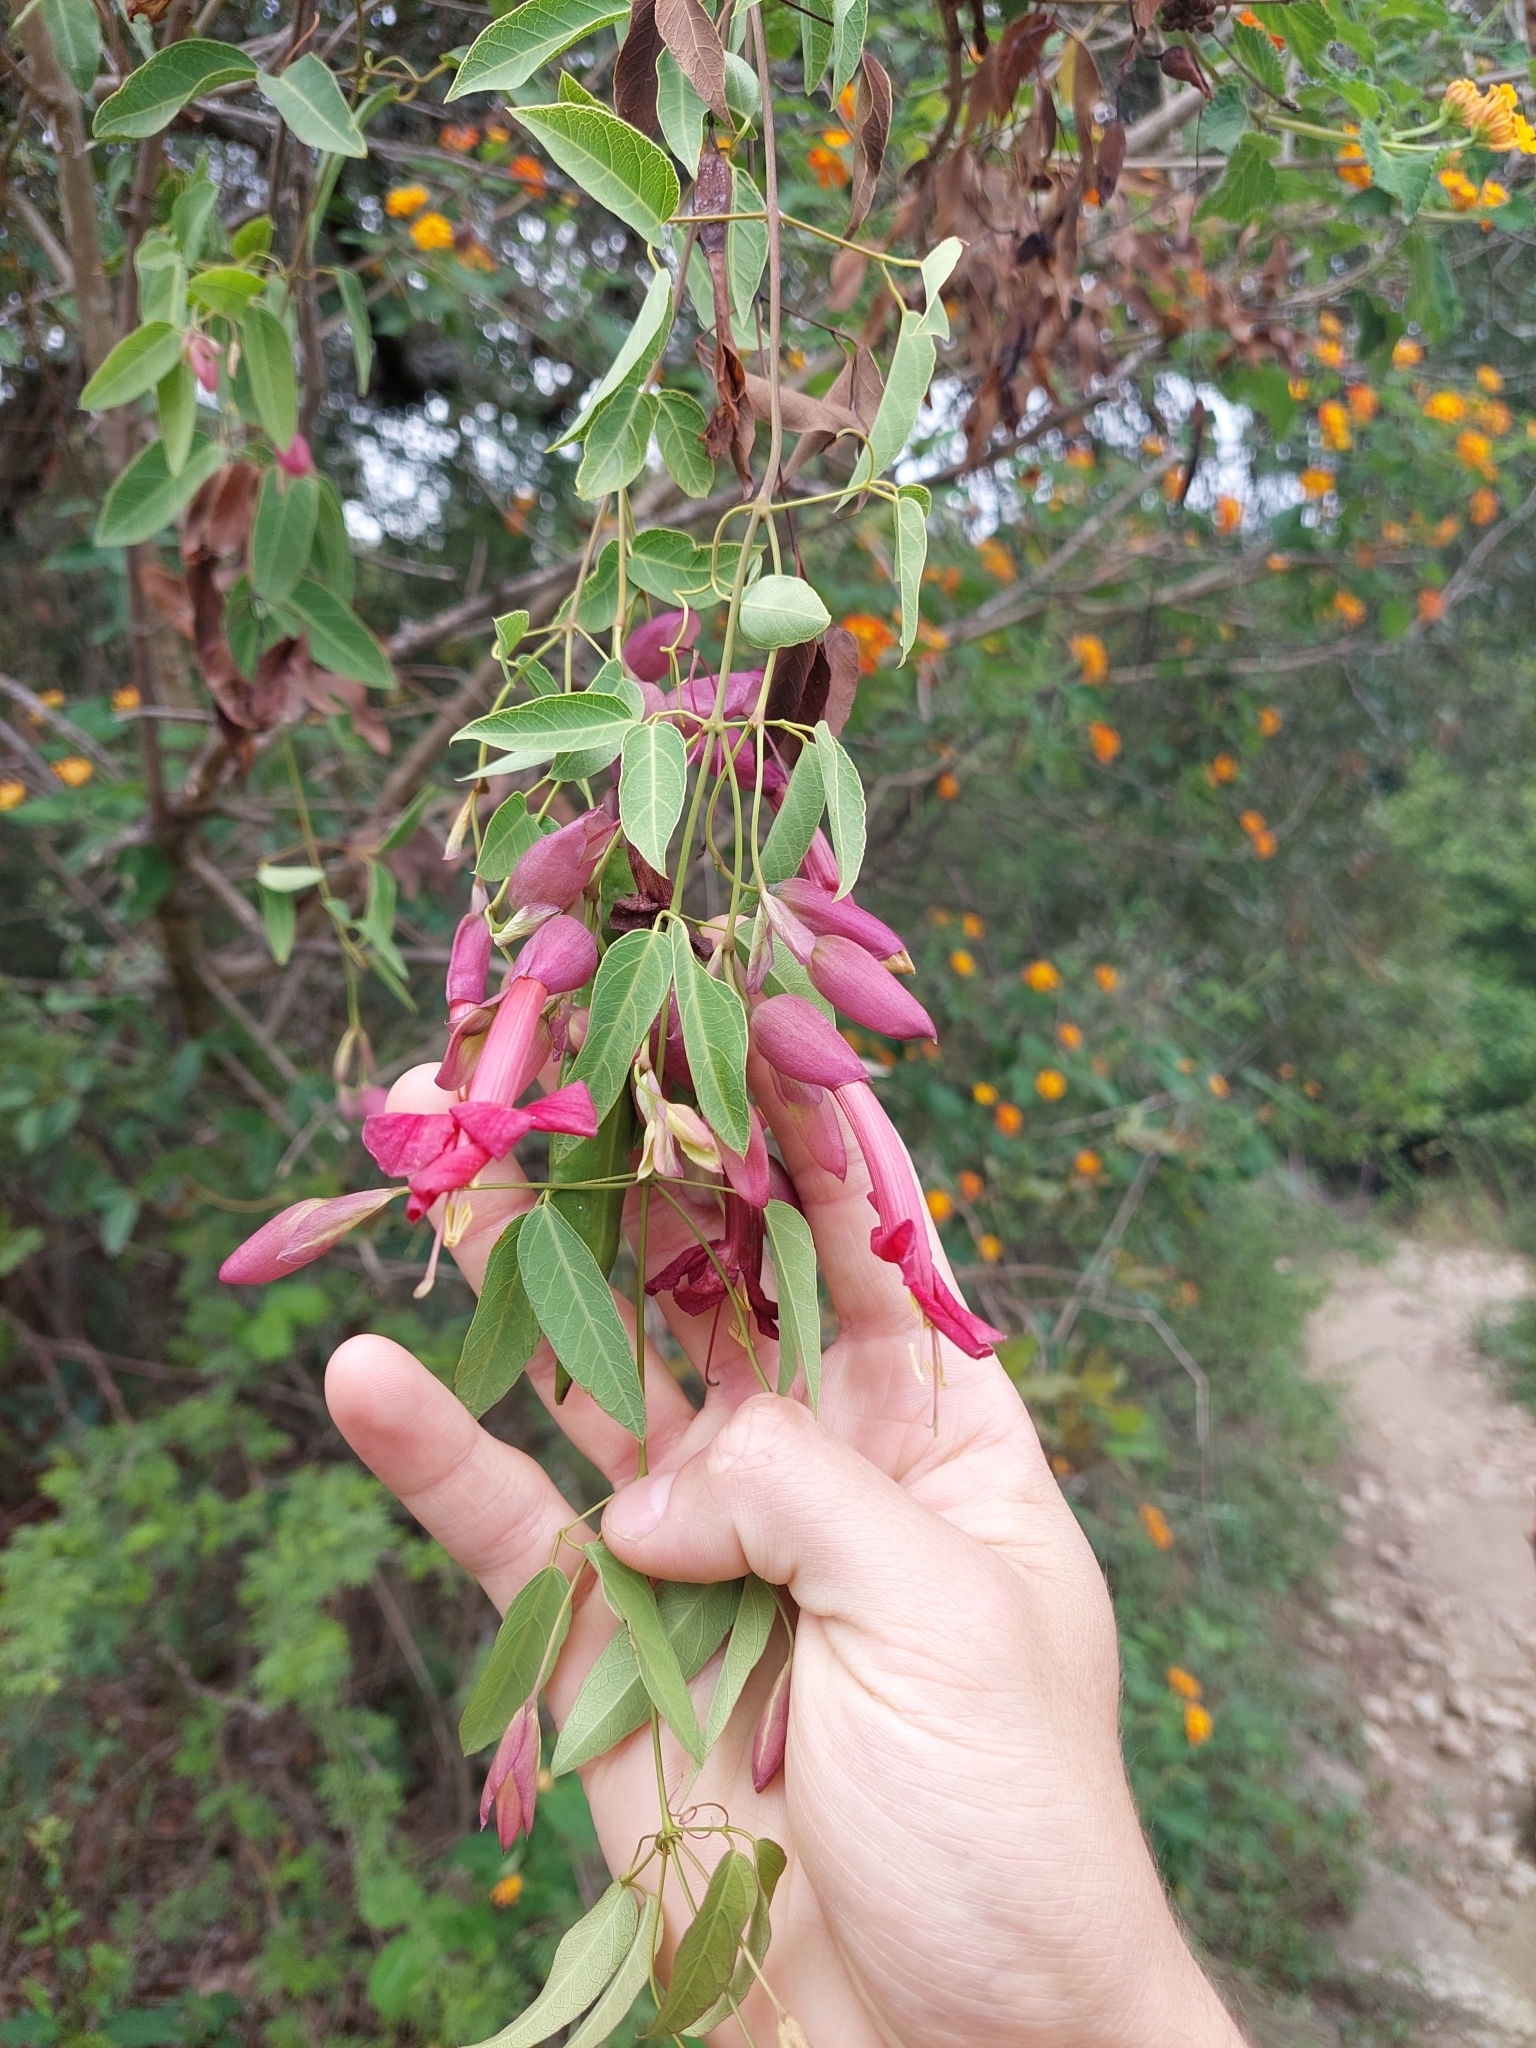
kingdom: Plantae
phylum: Tracheophyta
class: Magnoliopsida
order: Lamiales
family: Bignoniaceae
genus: Dolichandra
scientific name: Dolichandra cynanchoides
